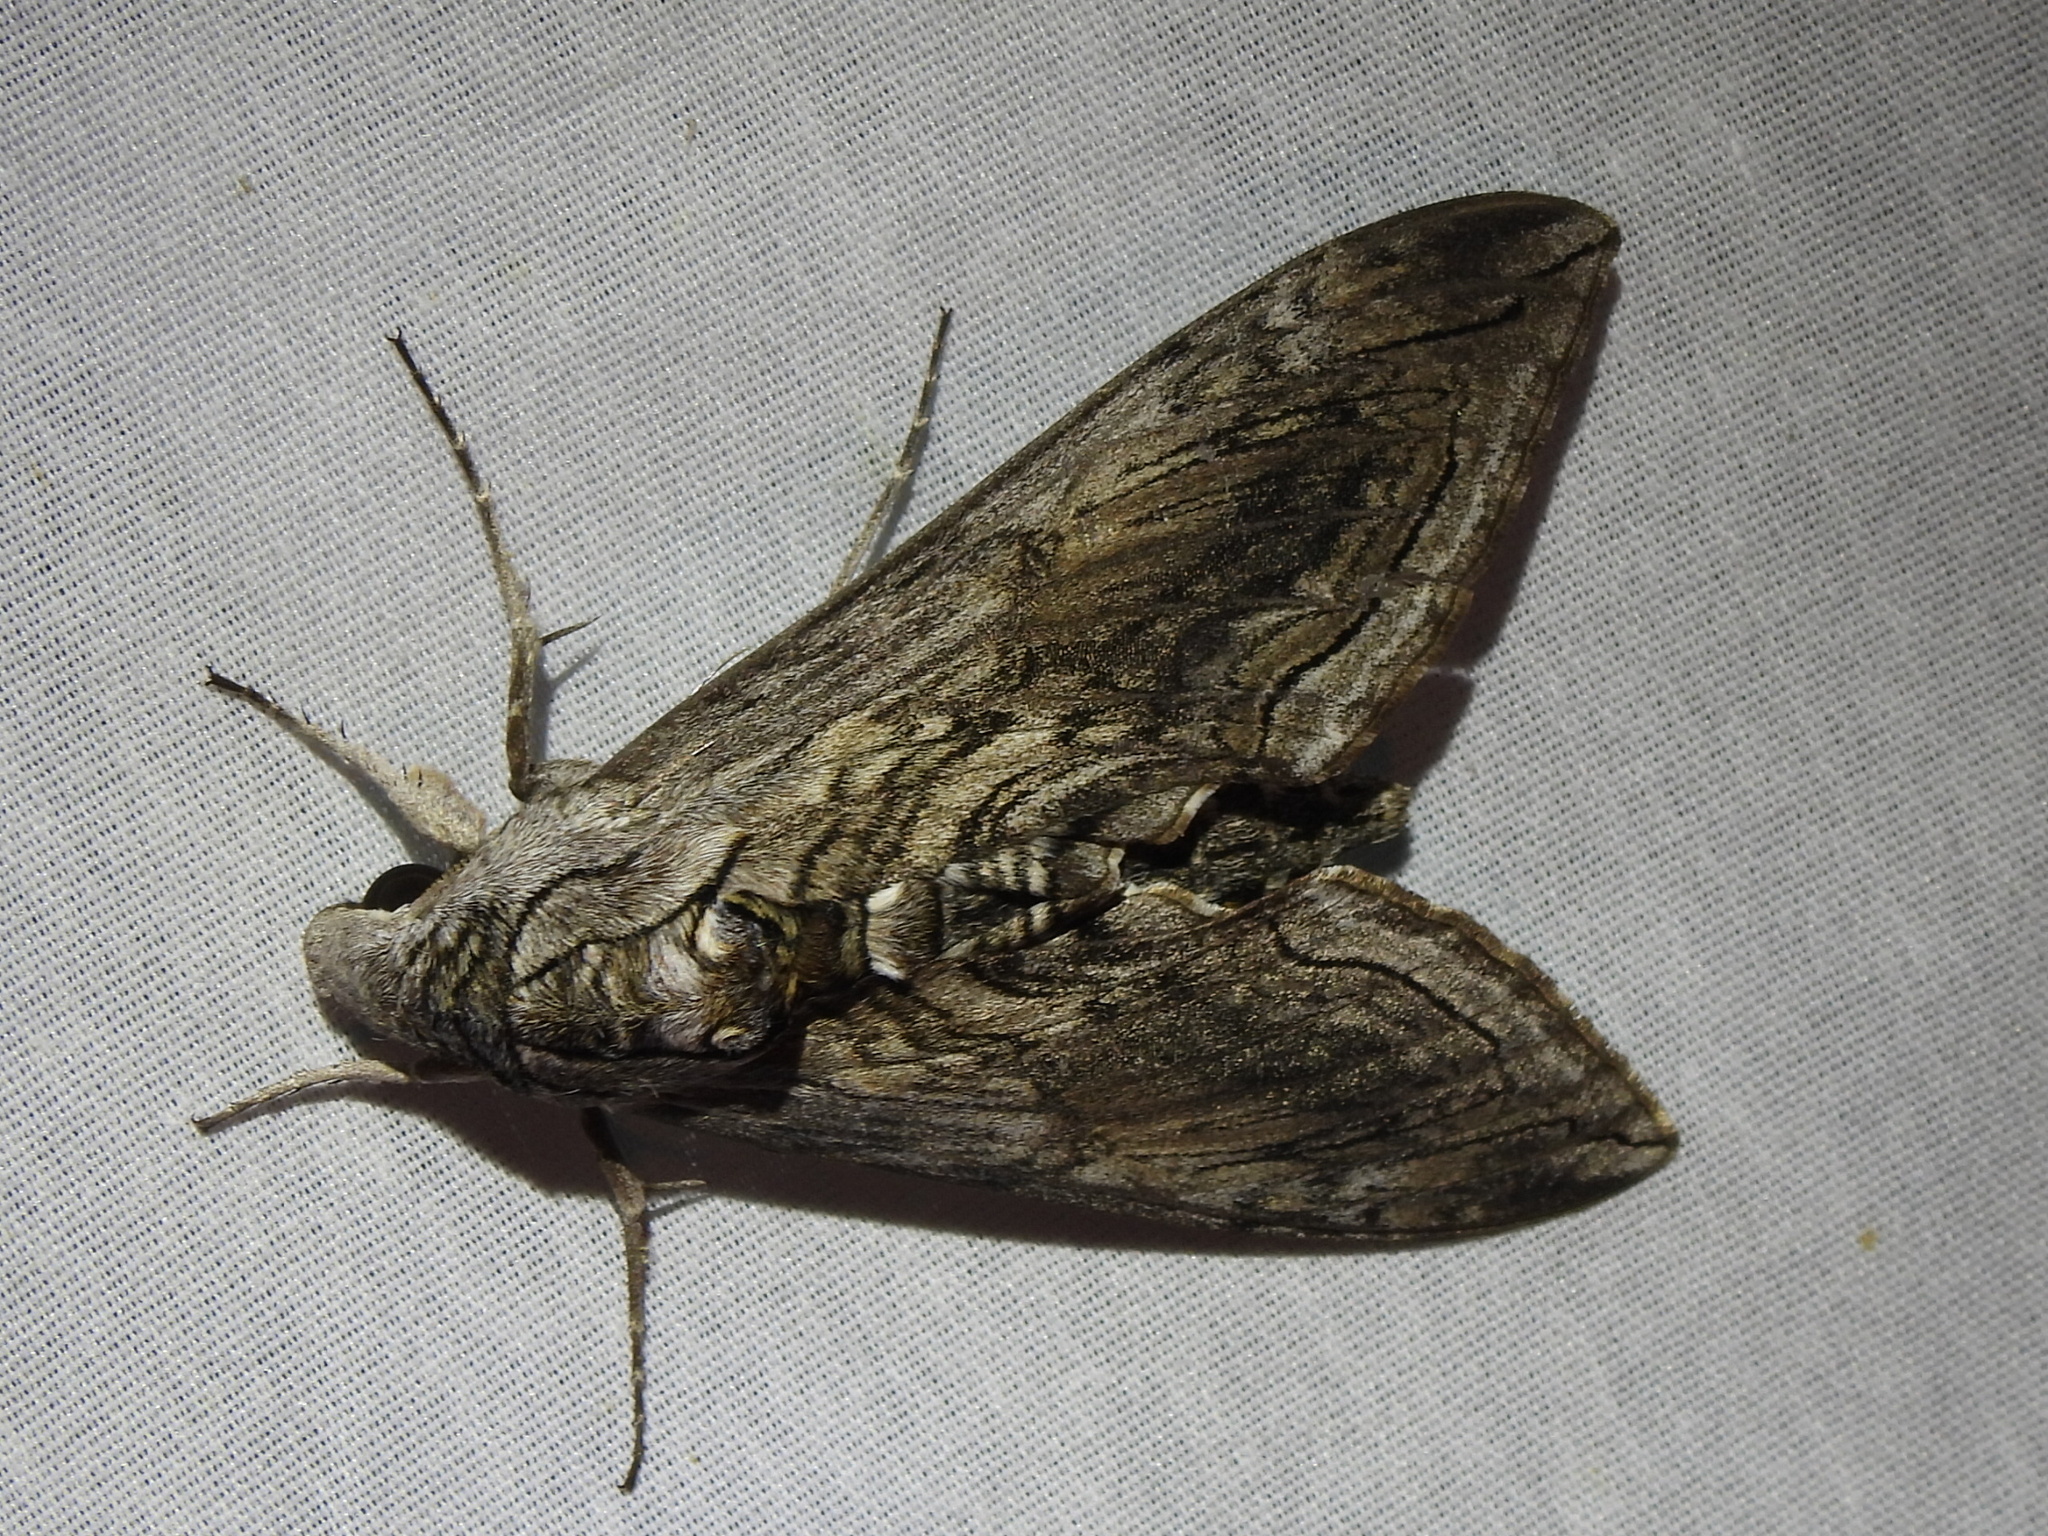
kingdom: Animalia
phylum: Arthropoda
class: Insecta
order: Lepidoptera
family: Sphingidae
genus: Manduca
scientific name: Manduca quinquemaculatus
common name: Five-spotted hawk-moth
